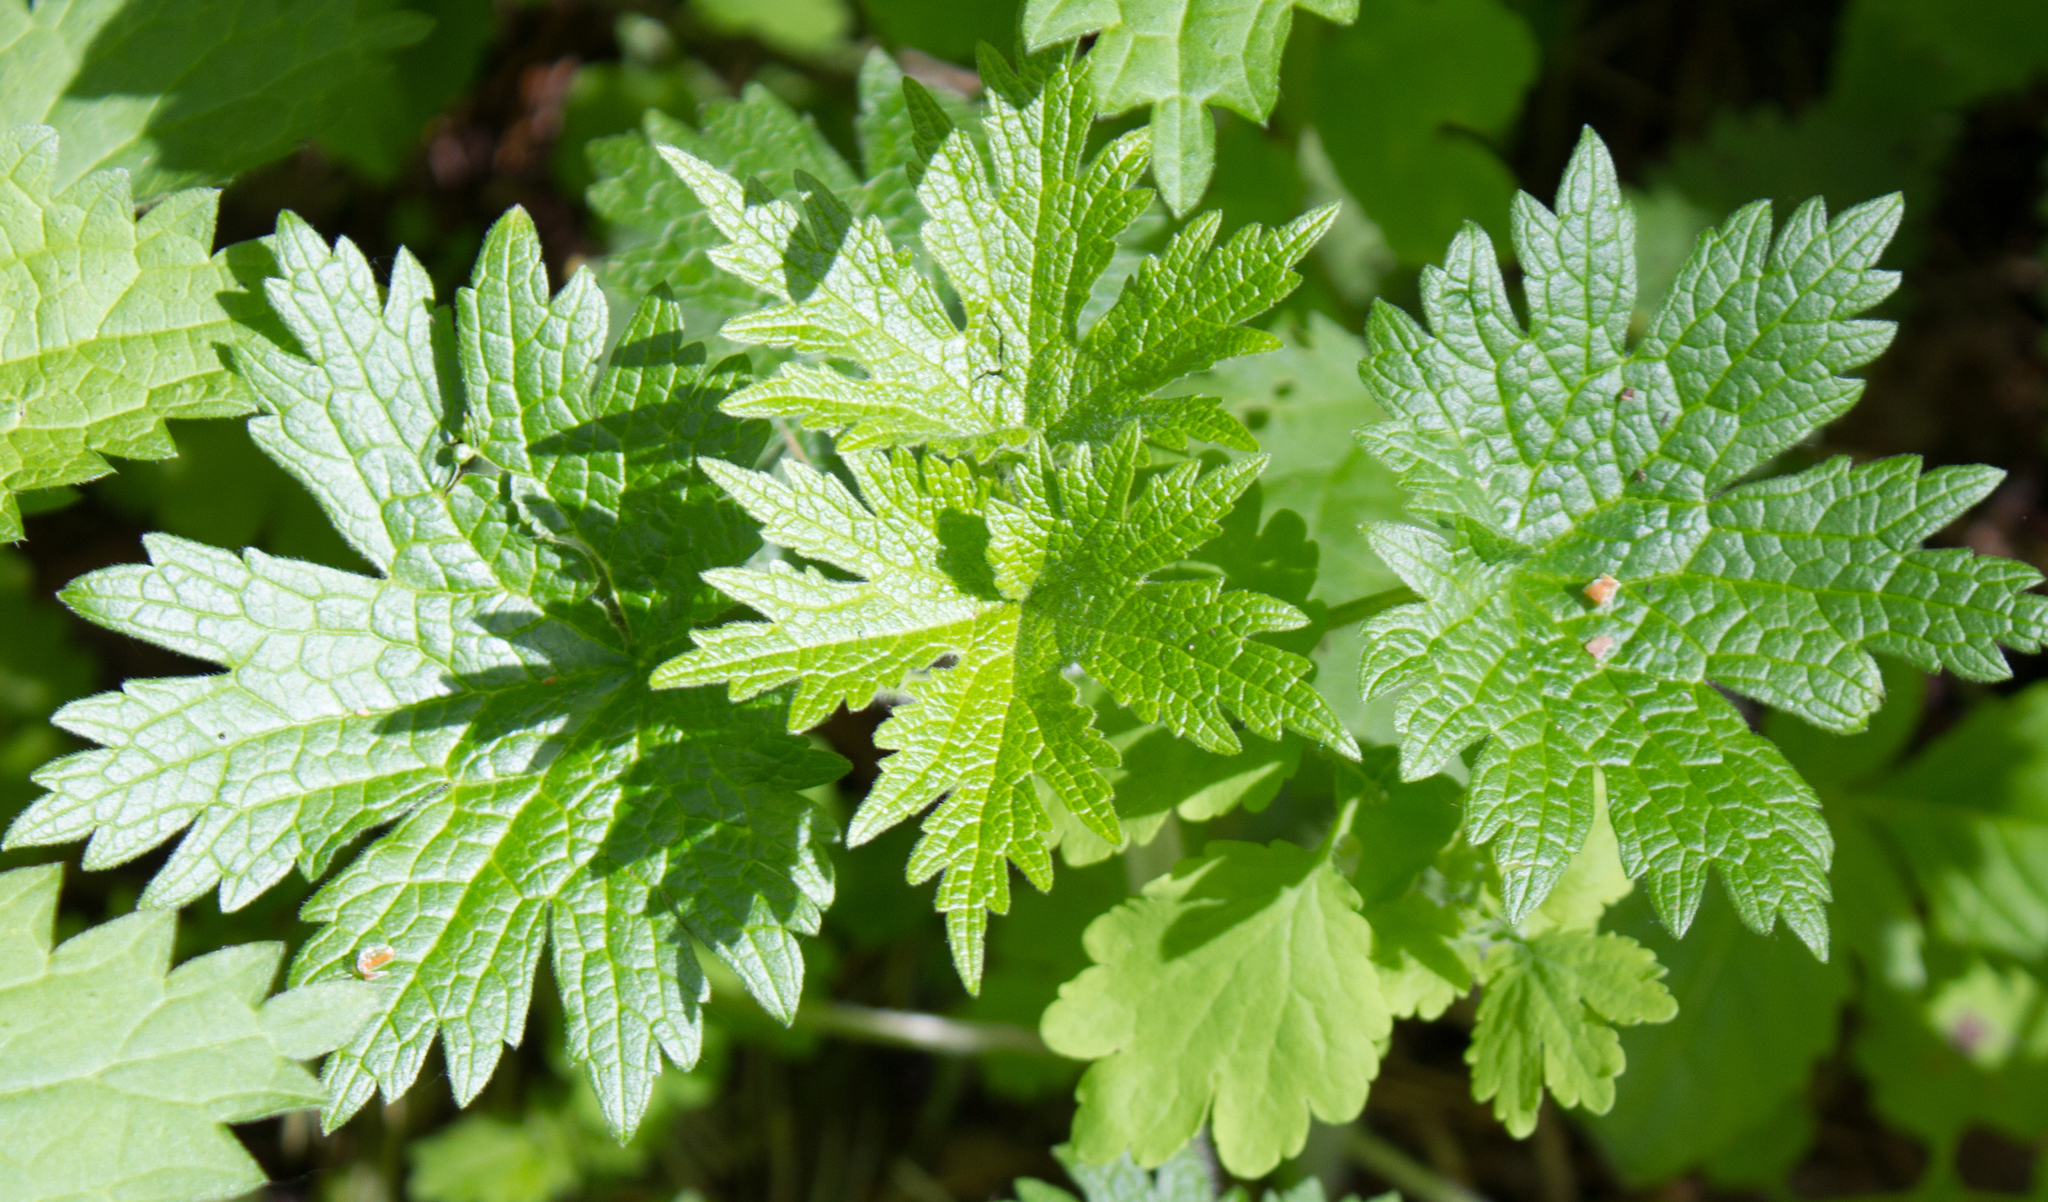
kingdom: Plantae
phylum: Tracheophyta
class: Magnoliopsida
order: Lamiales
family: Lamiaceae
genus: Leonurus
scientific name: Leonurus quinquelobatus
